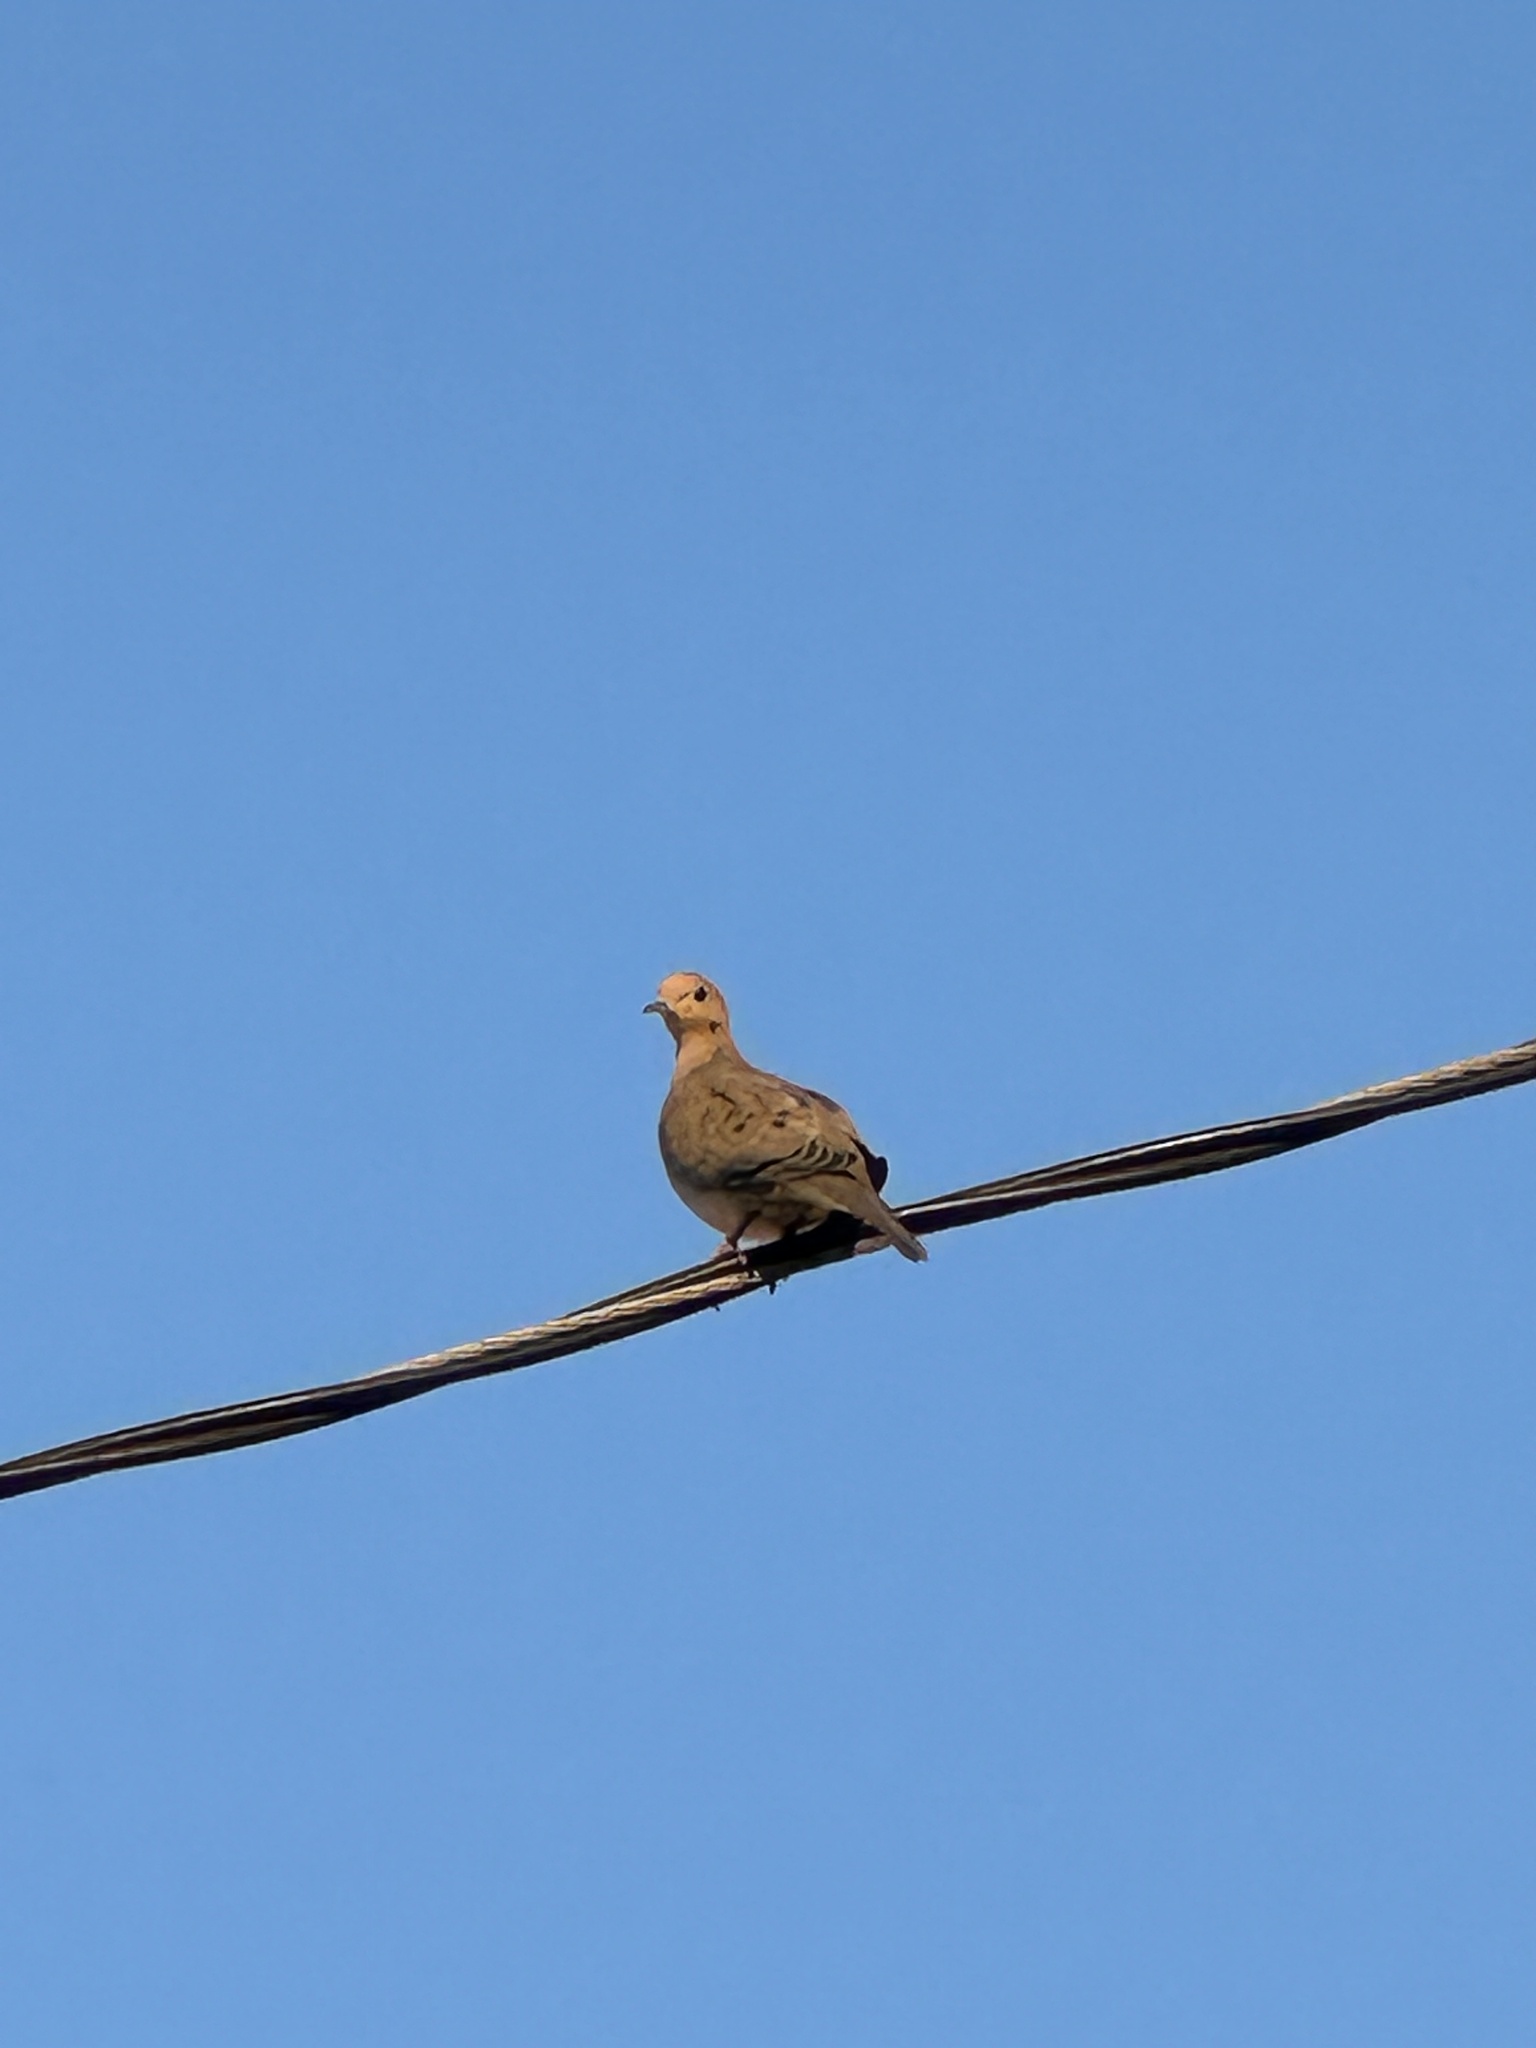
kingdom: Animalia
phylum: Chordata
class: Aves
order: Columbiformes
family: Columbidae
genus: Zenaida
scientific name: Zenaida macroura
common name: Mourning dove
